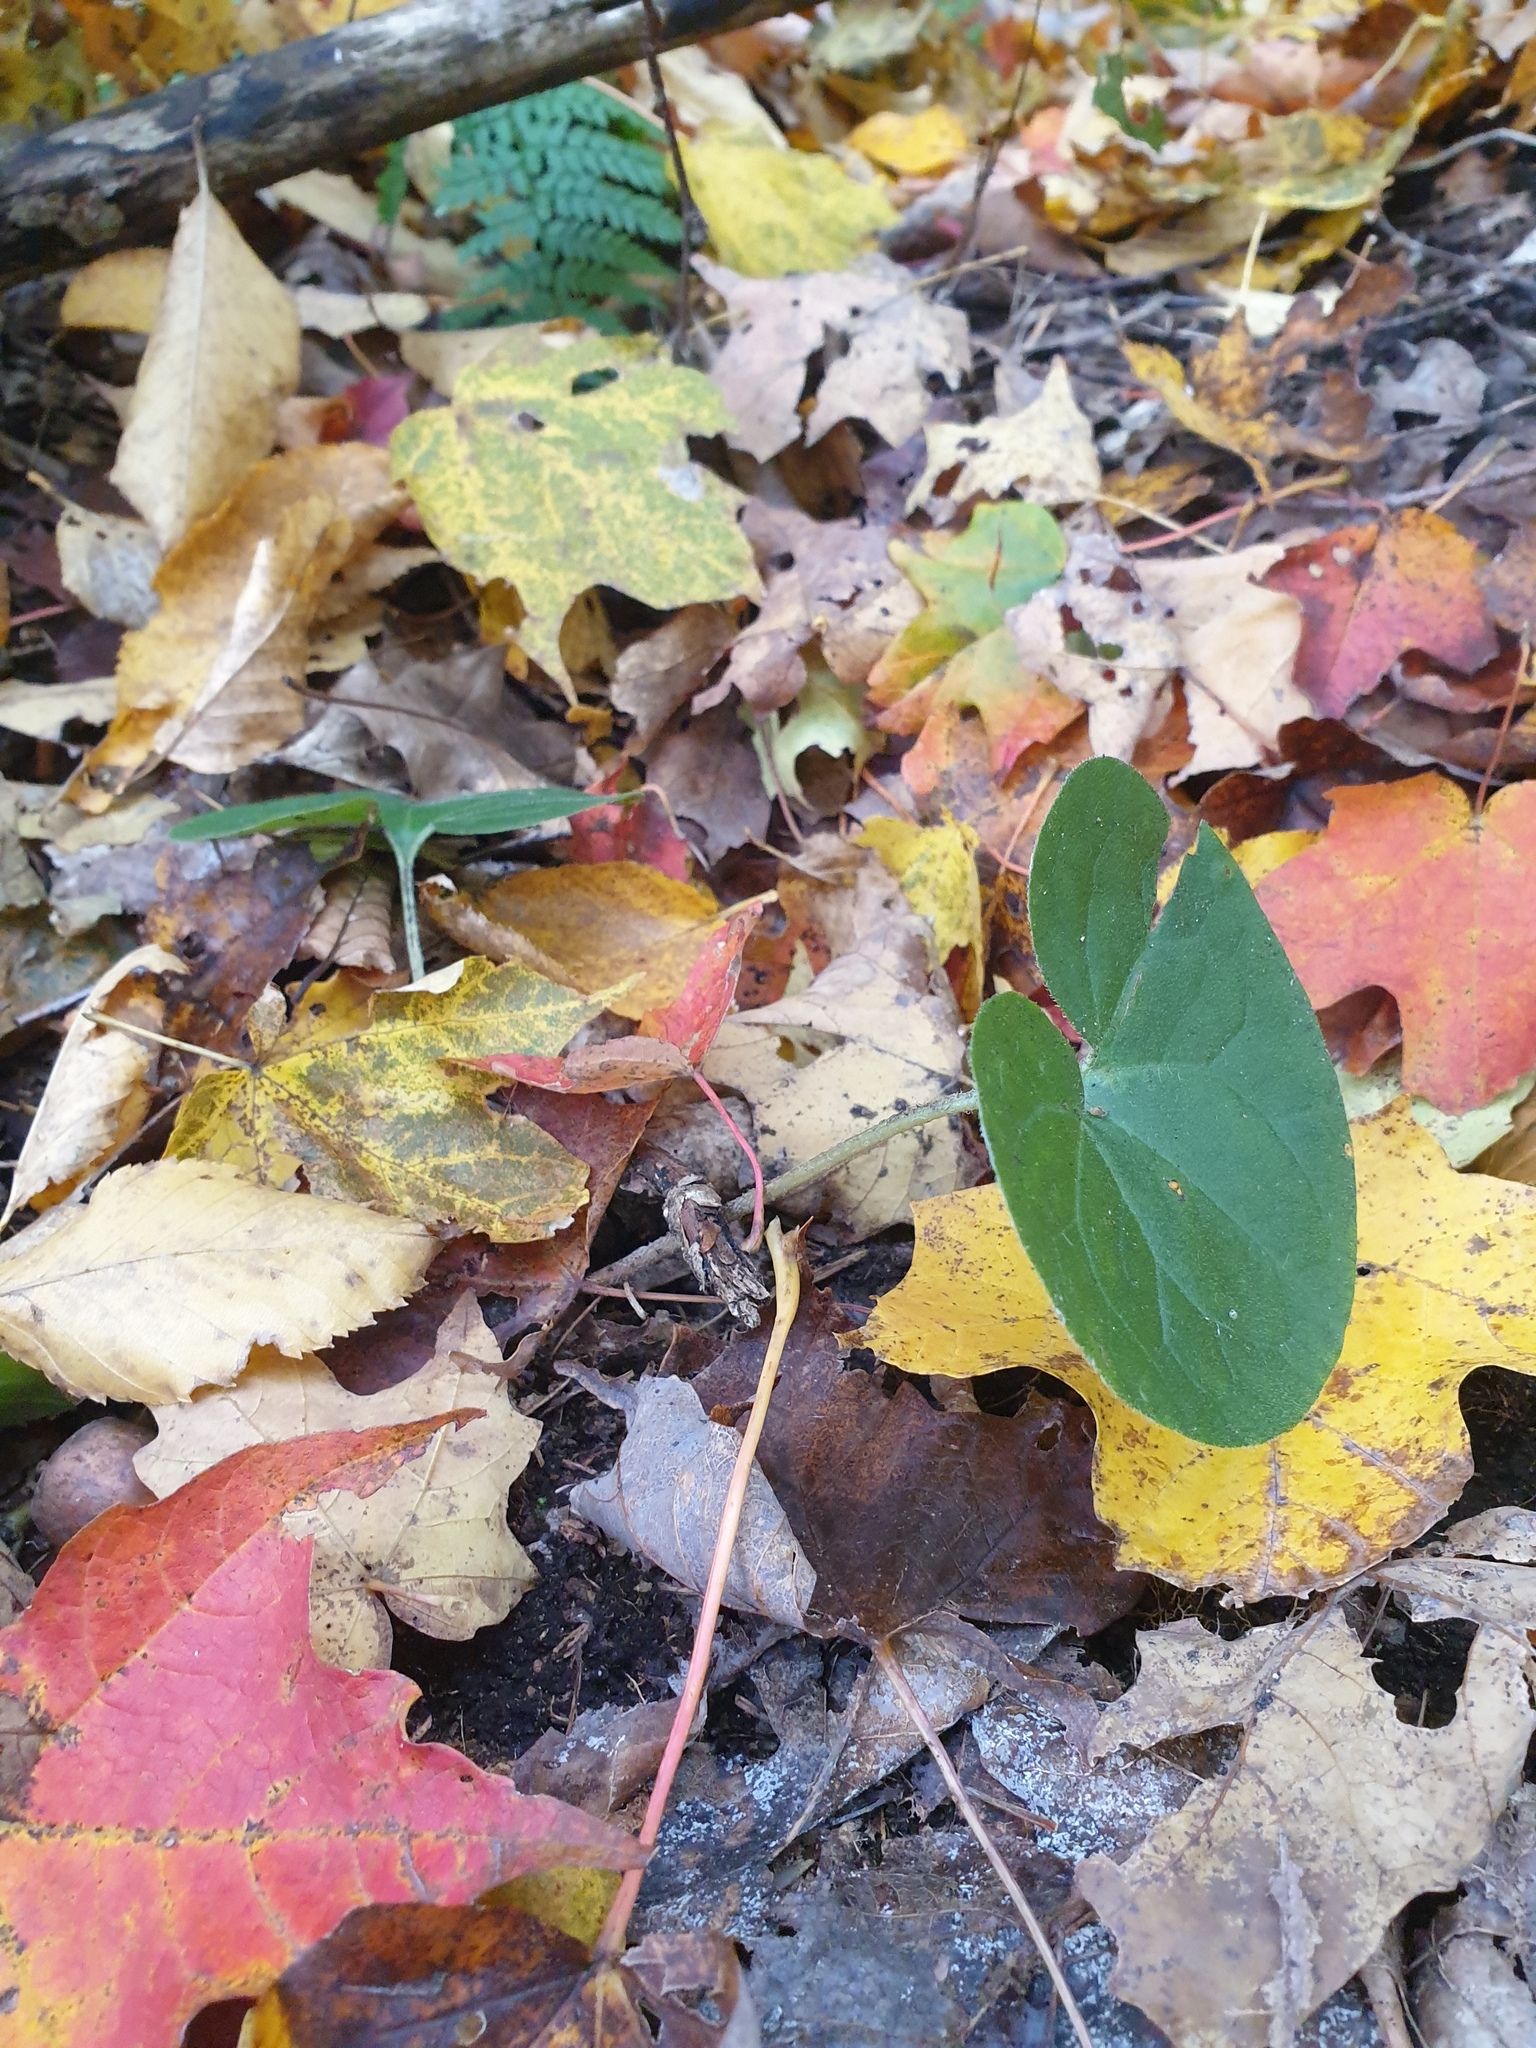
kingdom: Plantae
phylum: Tracheophyta
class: Magnoliopsida
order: Piperales
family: Aristolochiaceae
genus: Asarum
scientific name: Asarum canadense
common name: Wild ginger
